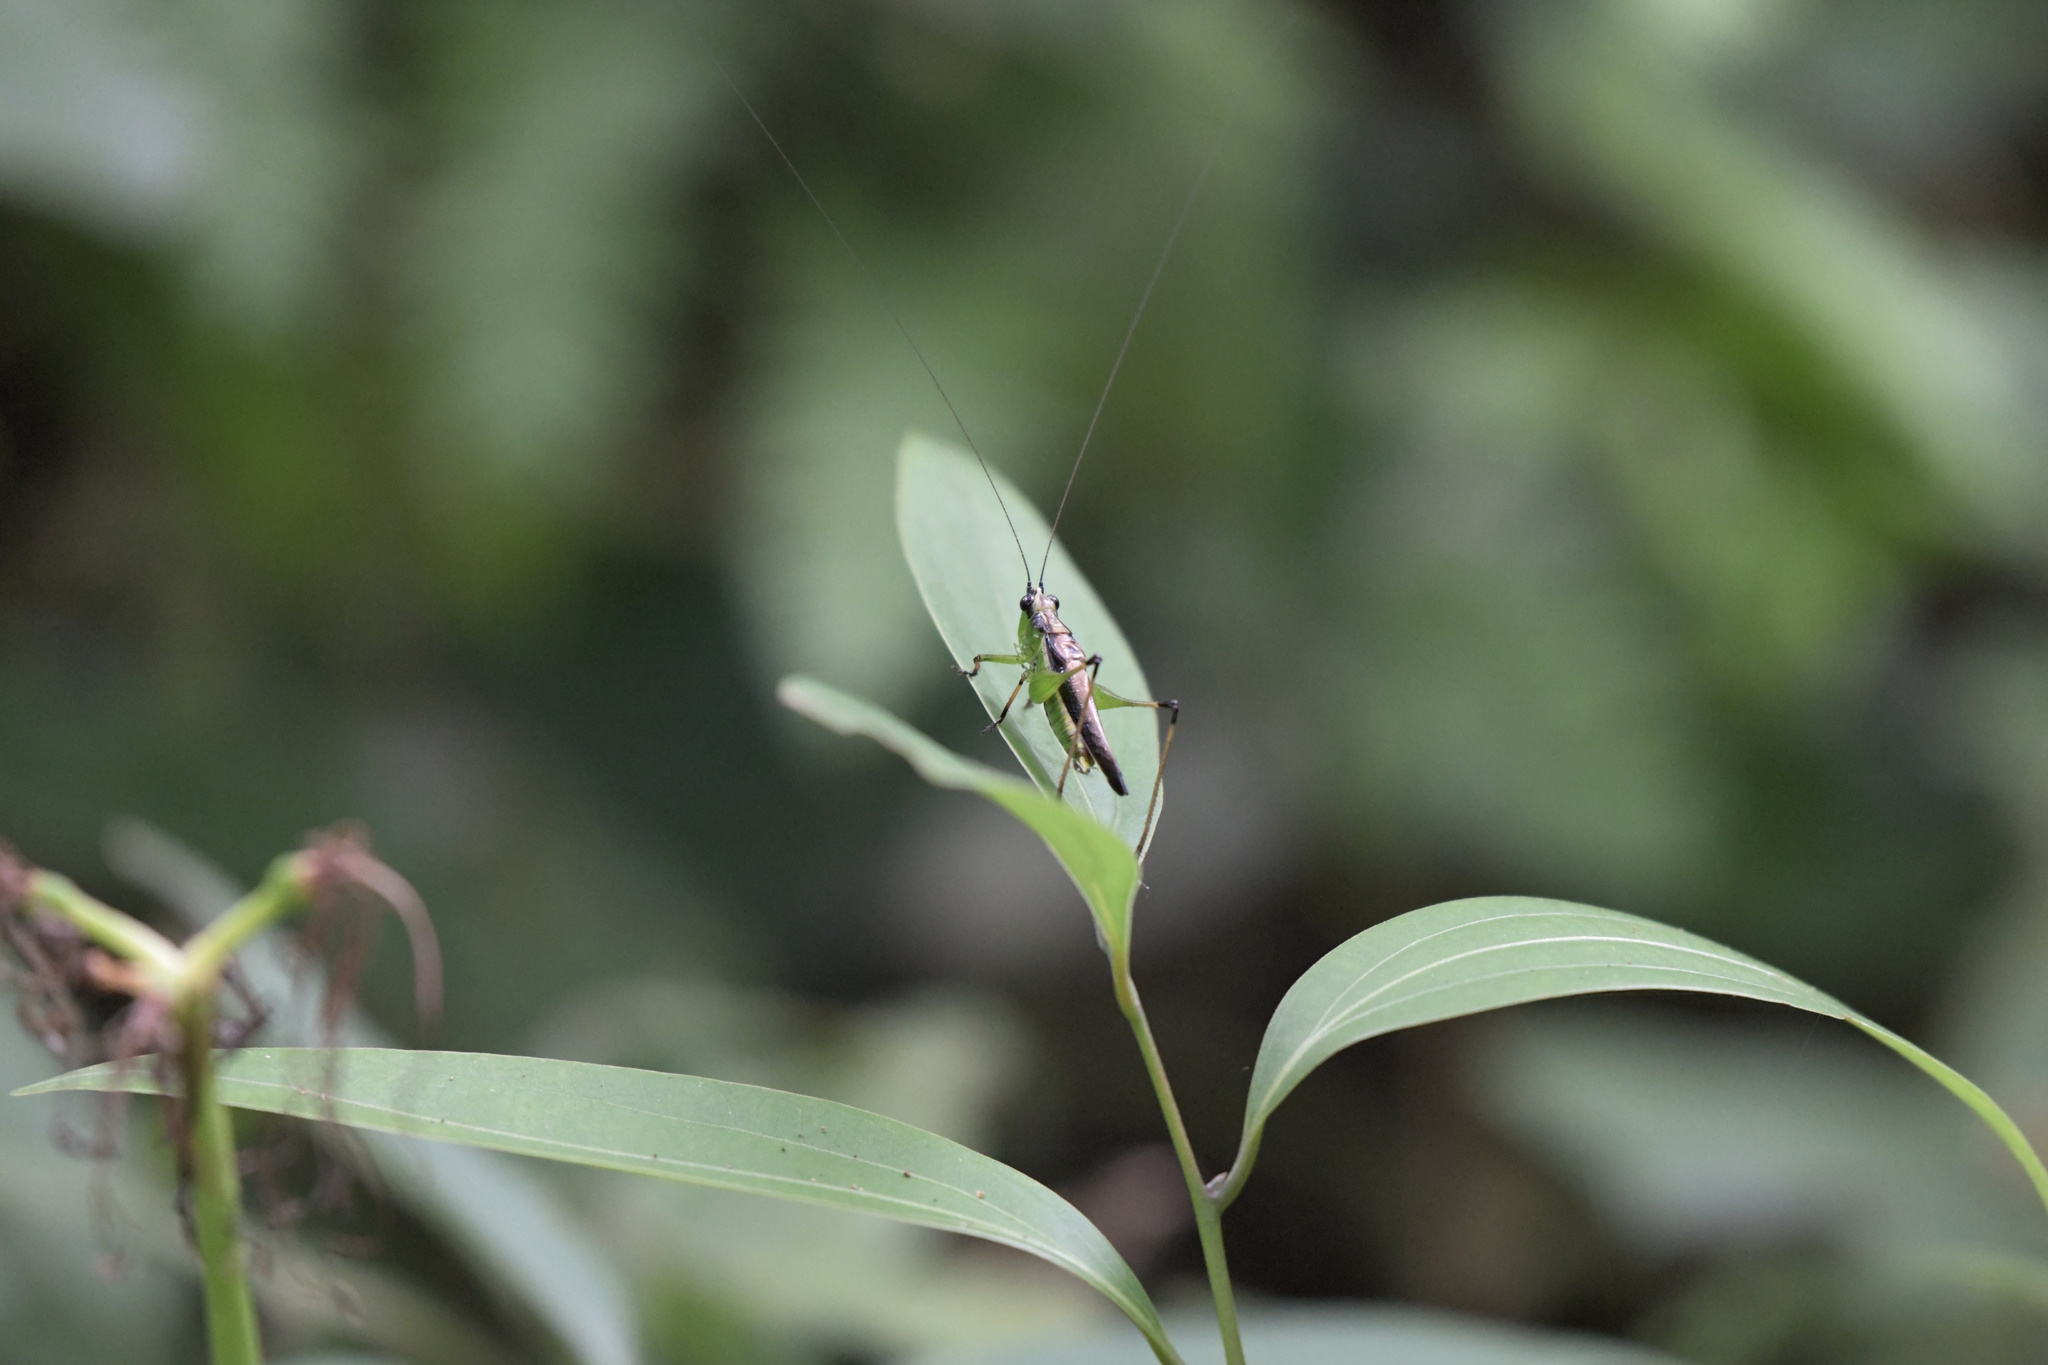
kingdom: Animalia
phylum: Arthropoda
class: Insecta
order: Orthoptera
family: Tettigoniidae
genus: Conocephalus
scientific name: Conocephalus melaenus
